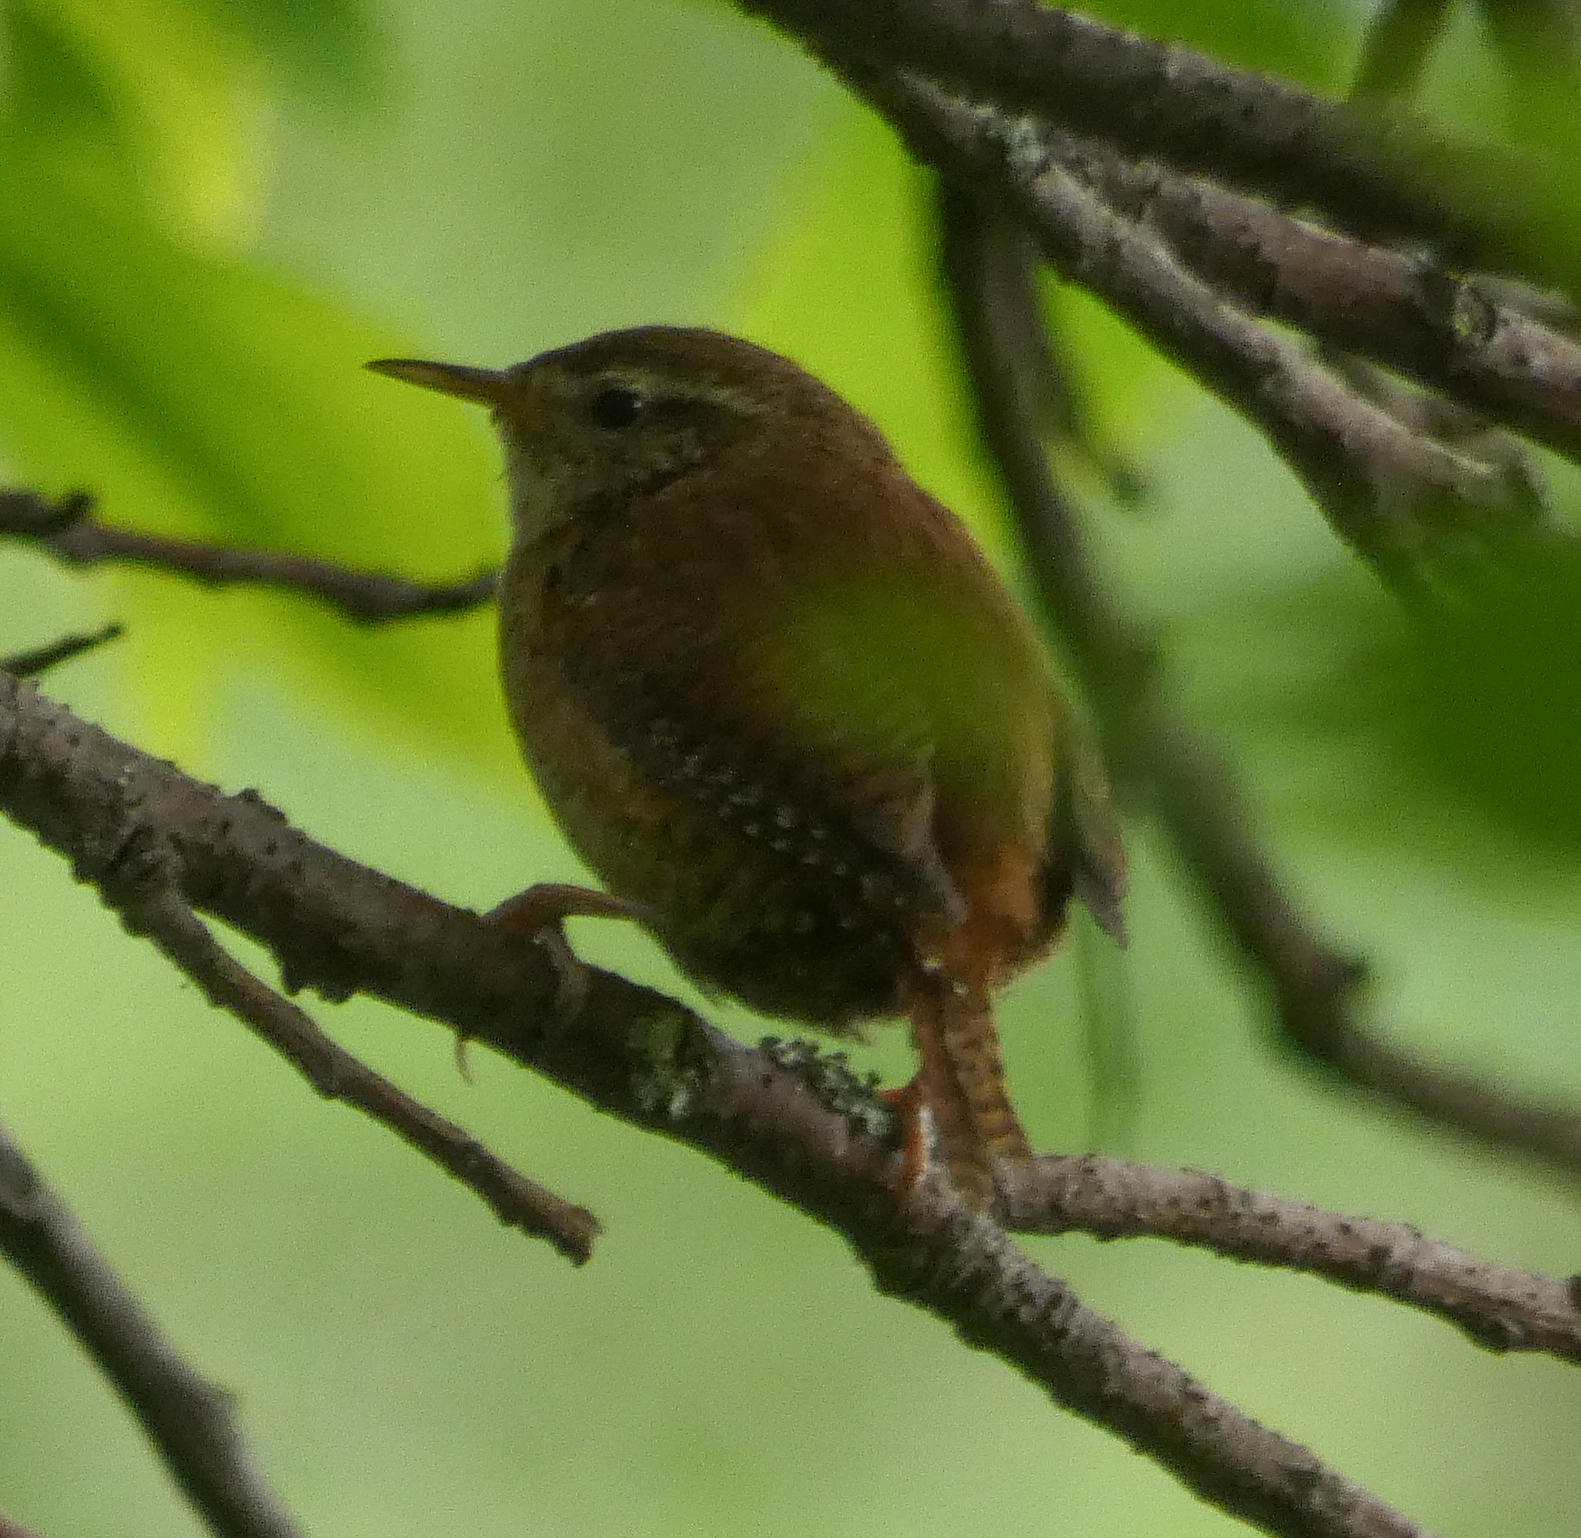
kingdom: Animalia
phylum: Chordata
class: Aves
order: Passeriformes
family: Troglodytidae
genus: Troglodytes
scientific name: Troglodytes troglodytes
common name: Eurasian wren
